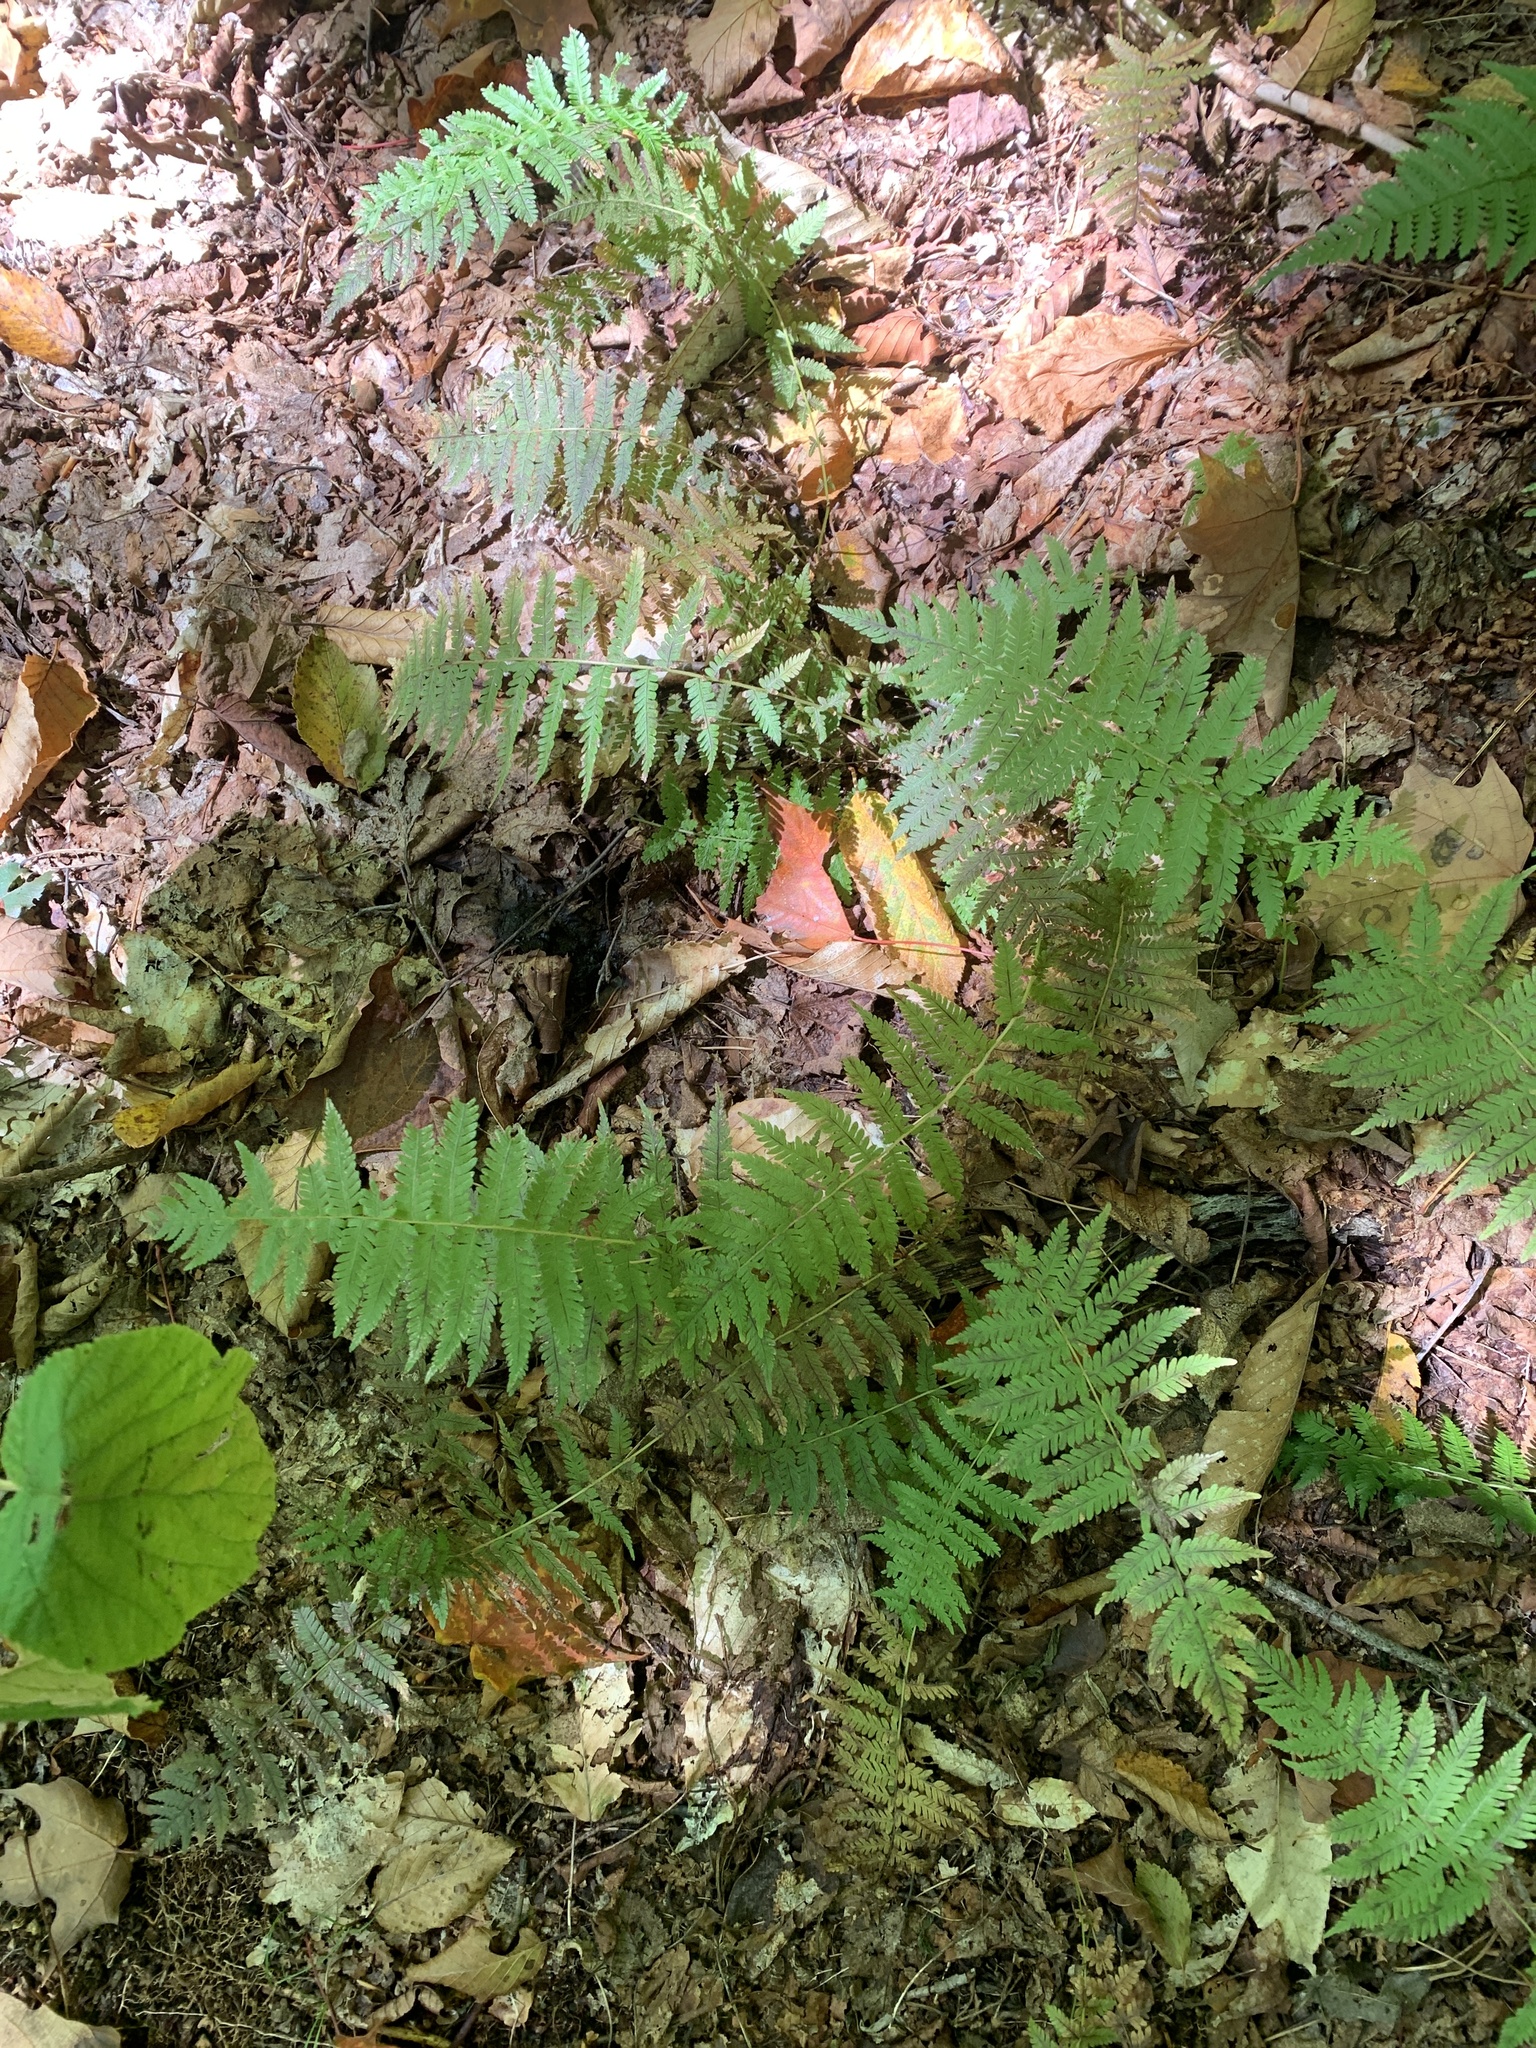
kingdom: Plantae
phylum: Tracheophyta
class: Polypodiopsida
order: Polypodiales
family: Thelypteridaceae
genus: Amauropelta
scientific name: Amauropelta noveboracensis
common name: New york fern
